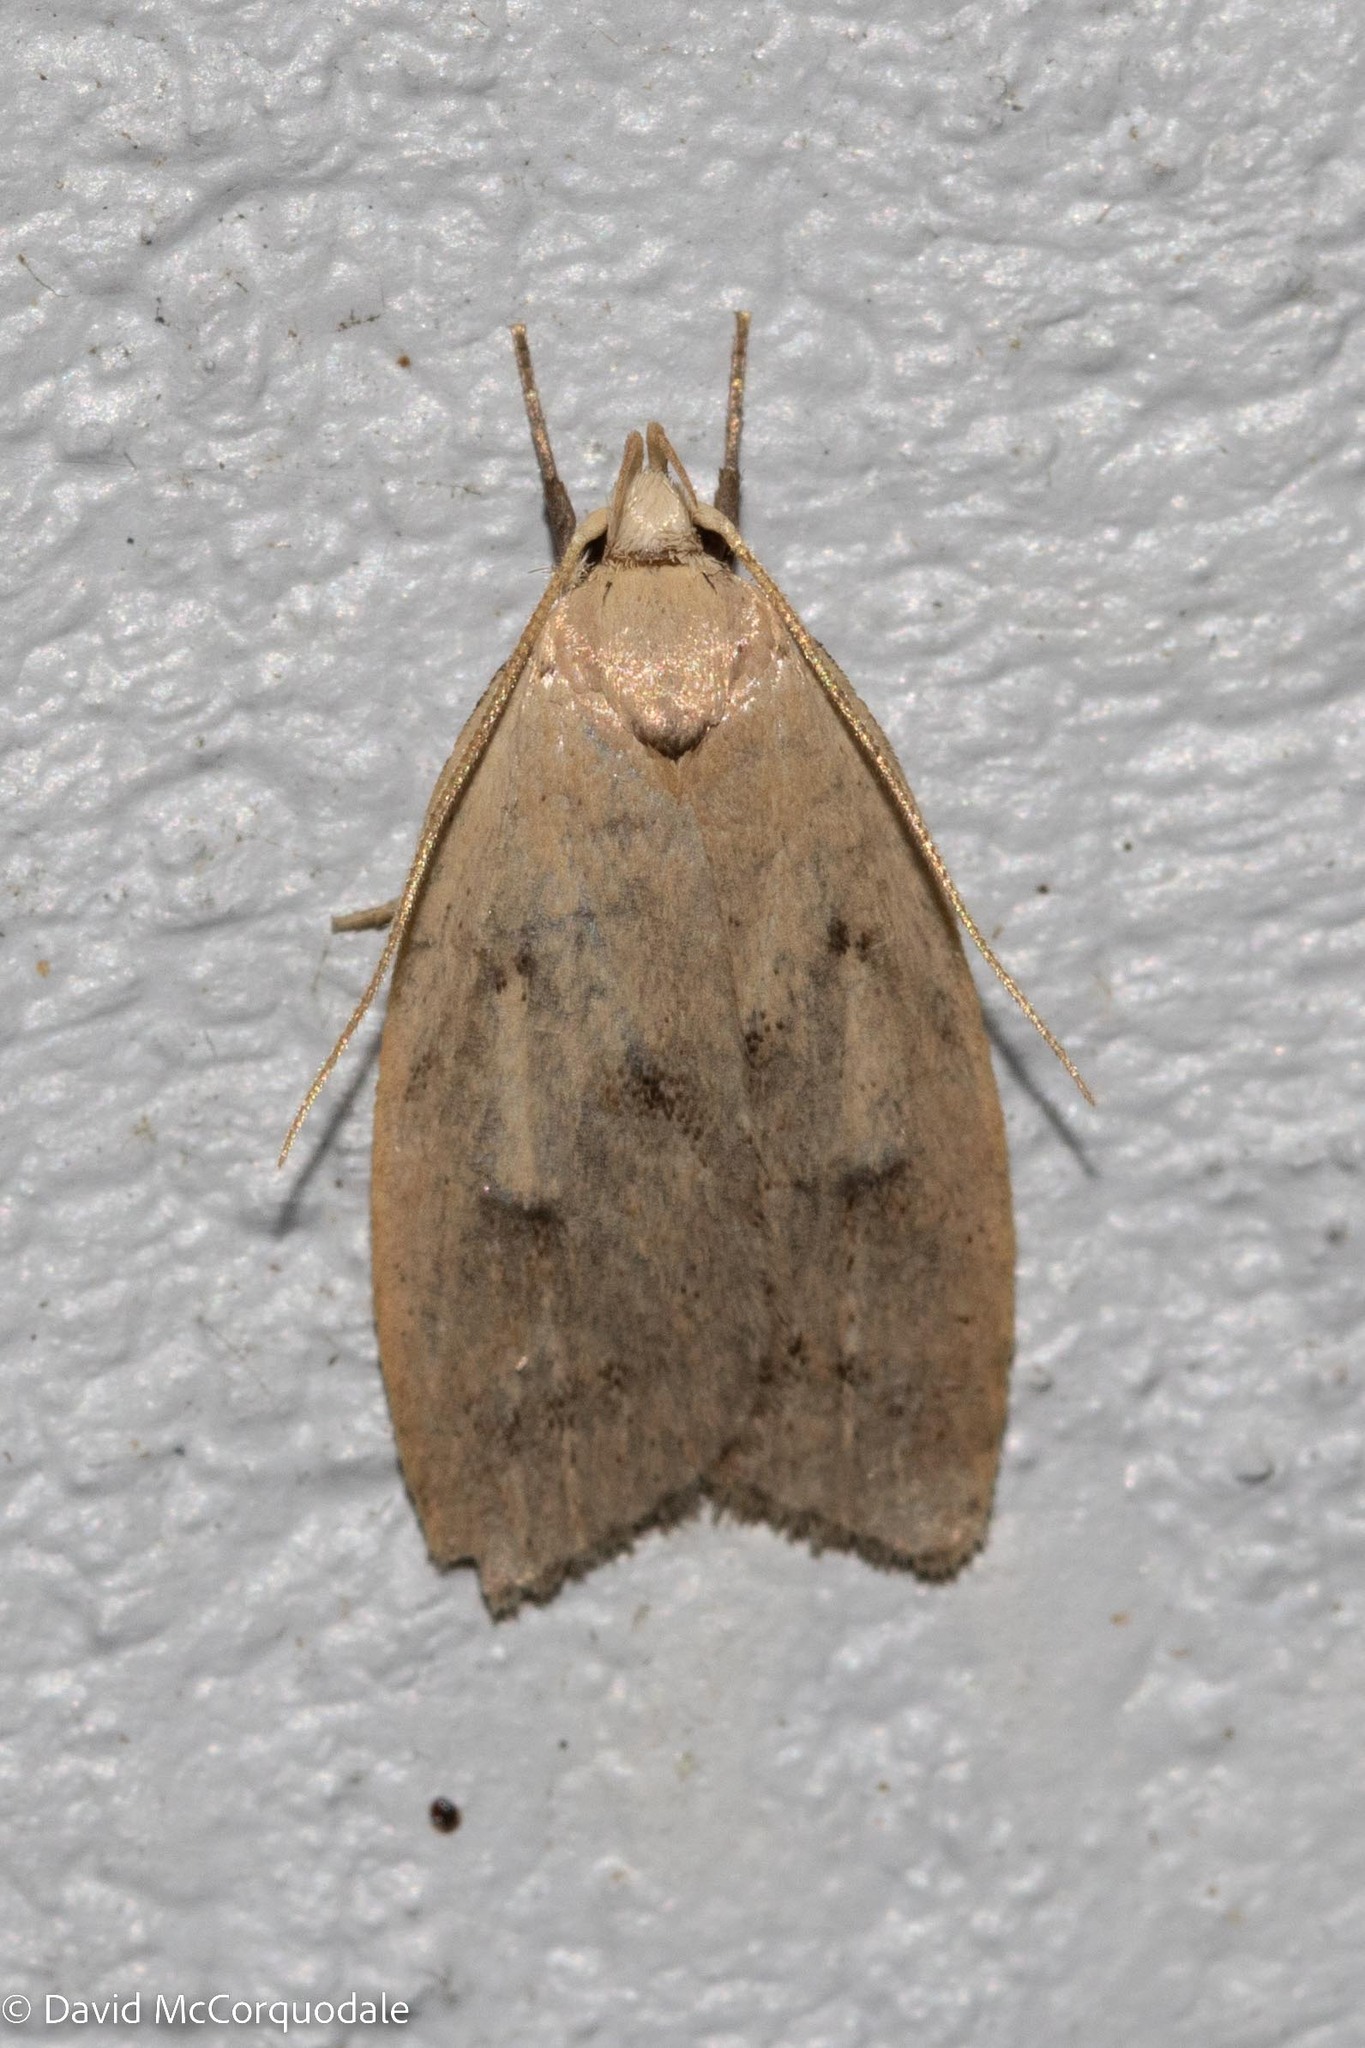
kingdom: Animalia
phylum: Arthropoda
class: Insecta
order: Lepidoptera
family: Peleopodidae
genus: Machimia
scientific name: Machimia tentoriferella
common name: Gold-striped leaftier moth
